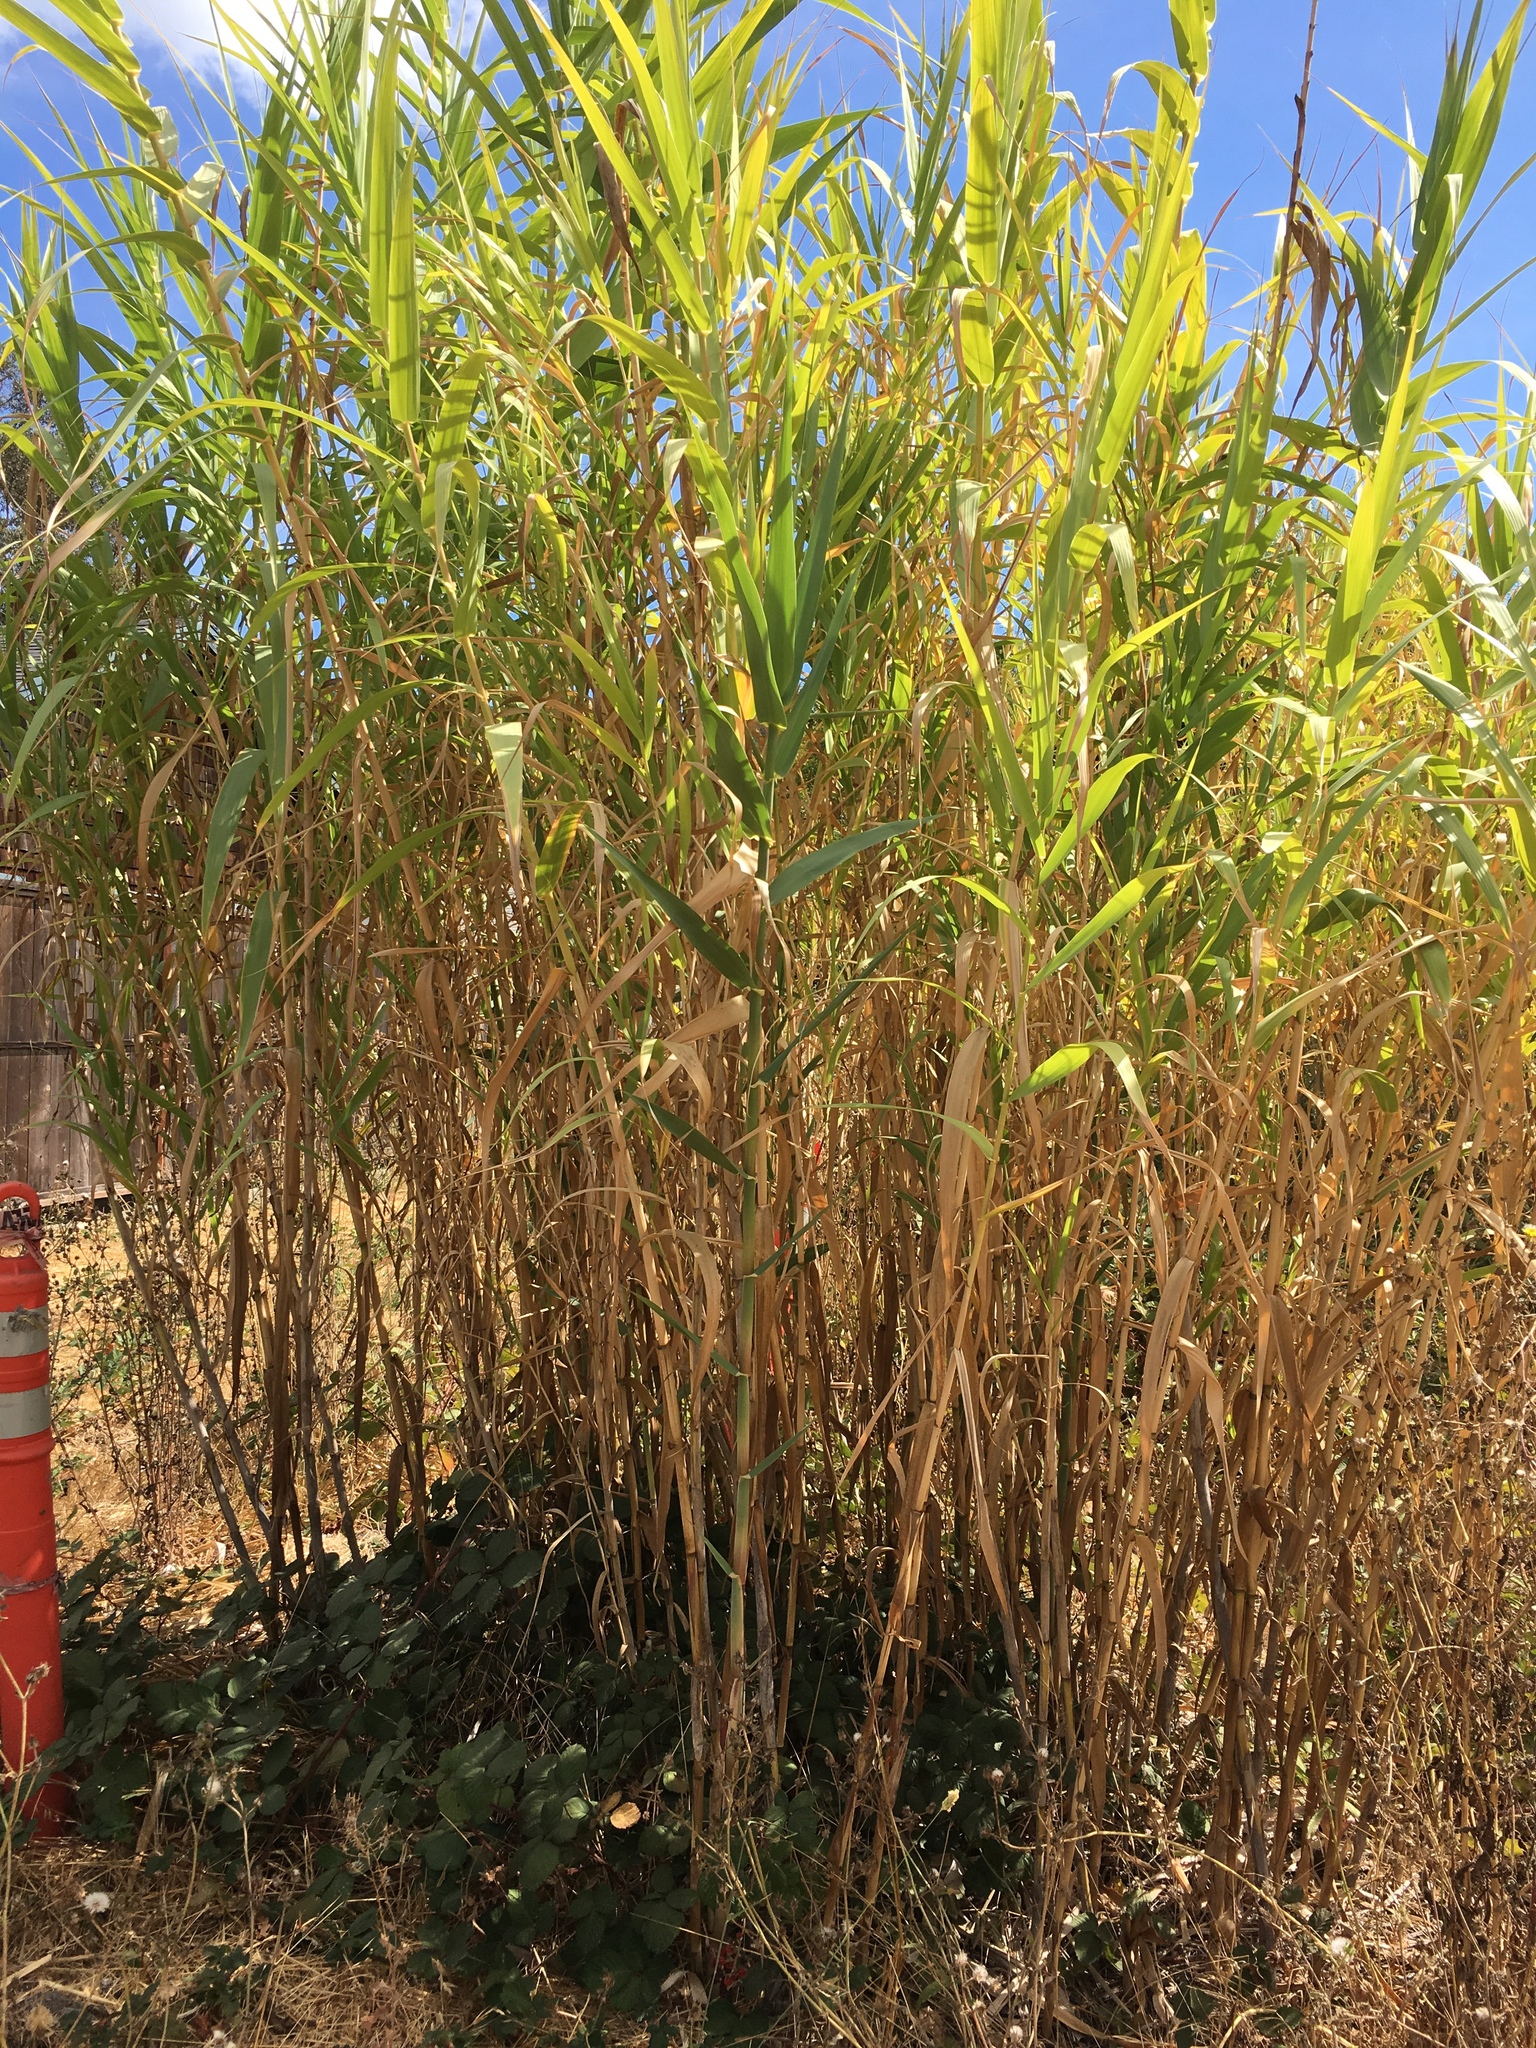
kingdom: Plantae
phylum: Tracheophyta
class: Liliopsida
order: Poales
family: Poaceae
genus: Arundo
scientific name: Arundo donax
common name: Giant reed
